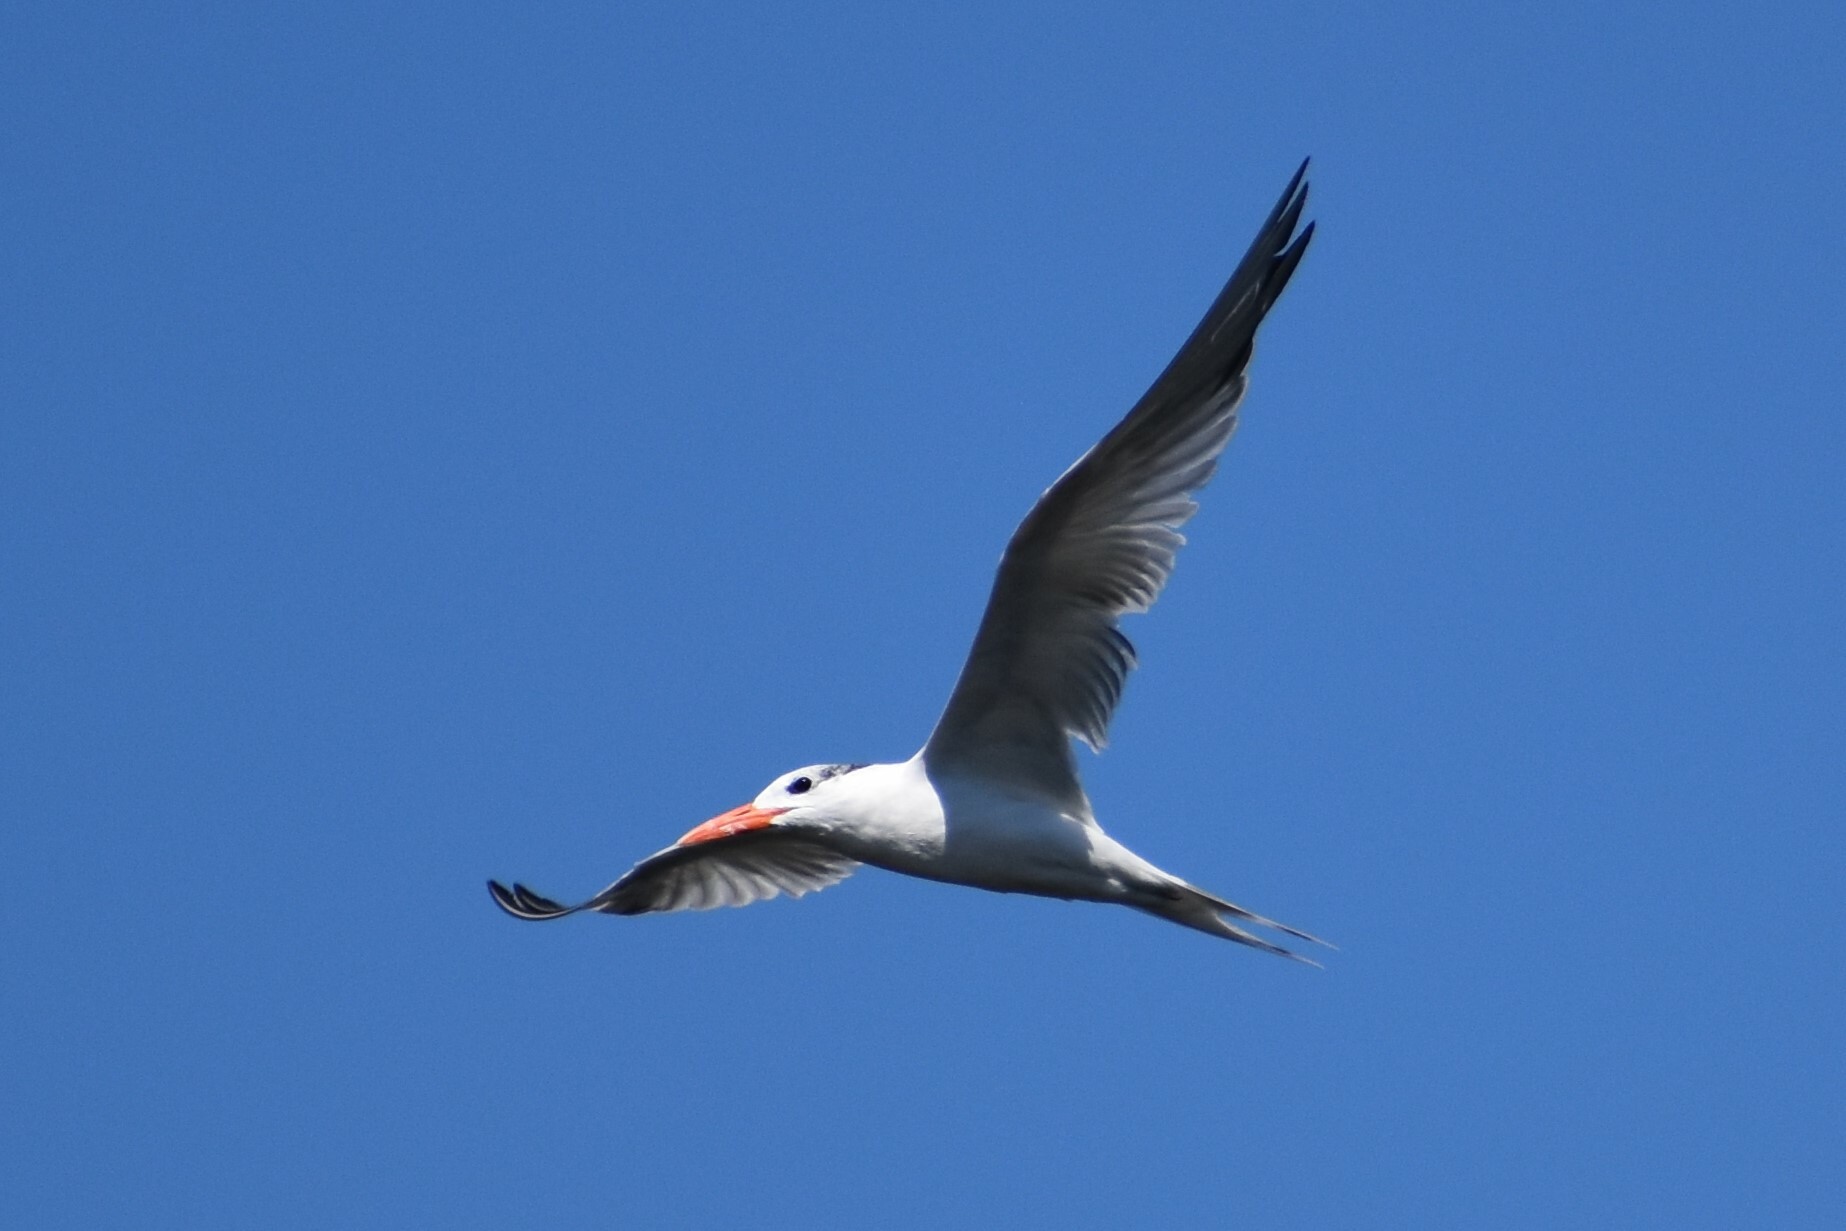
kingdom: Animalia
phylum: Chordata
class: Aves
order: Charadriiformes
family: Laridae
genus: Thalasseus
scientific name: Thalasseus maximus
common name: Royal tern
